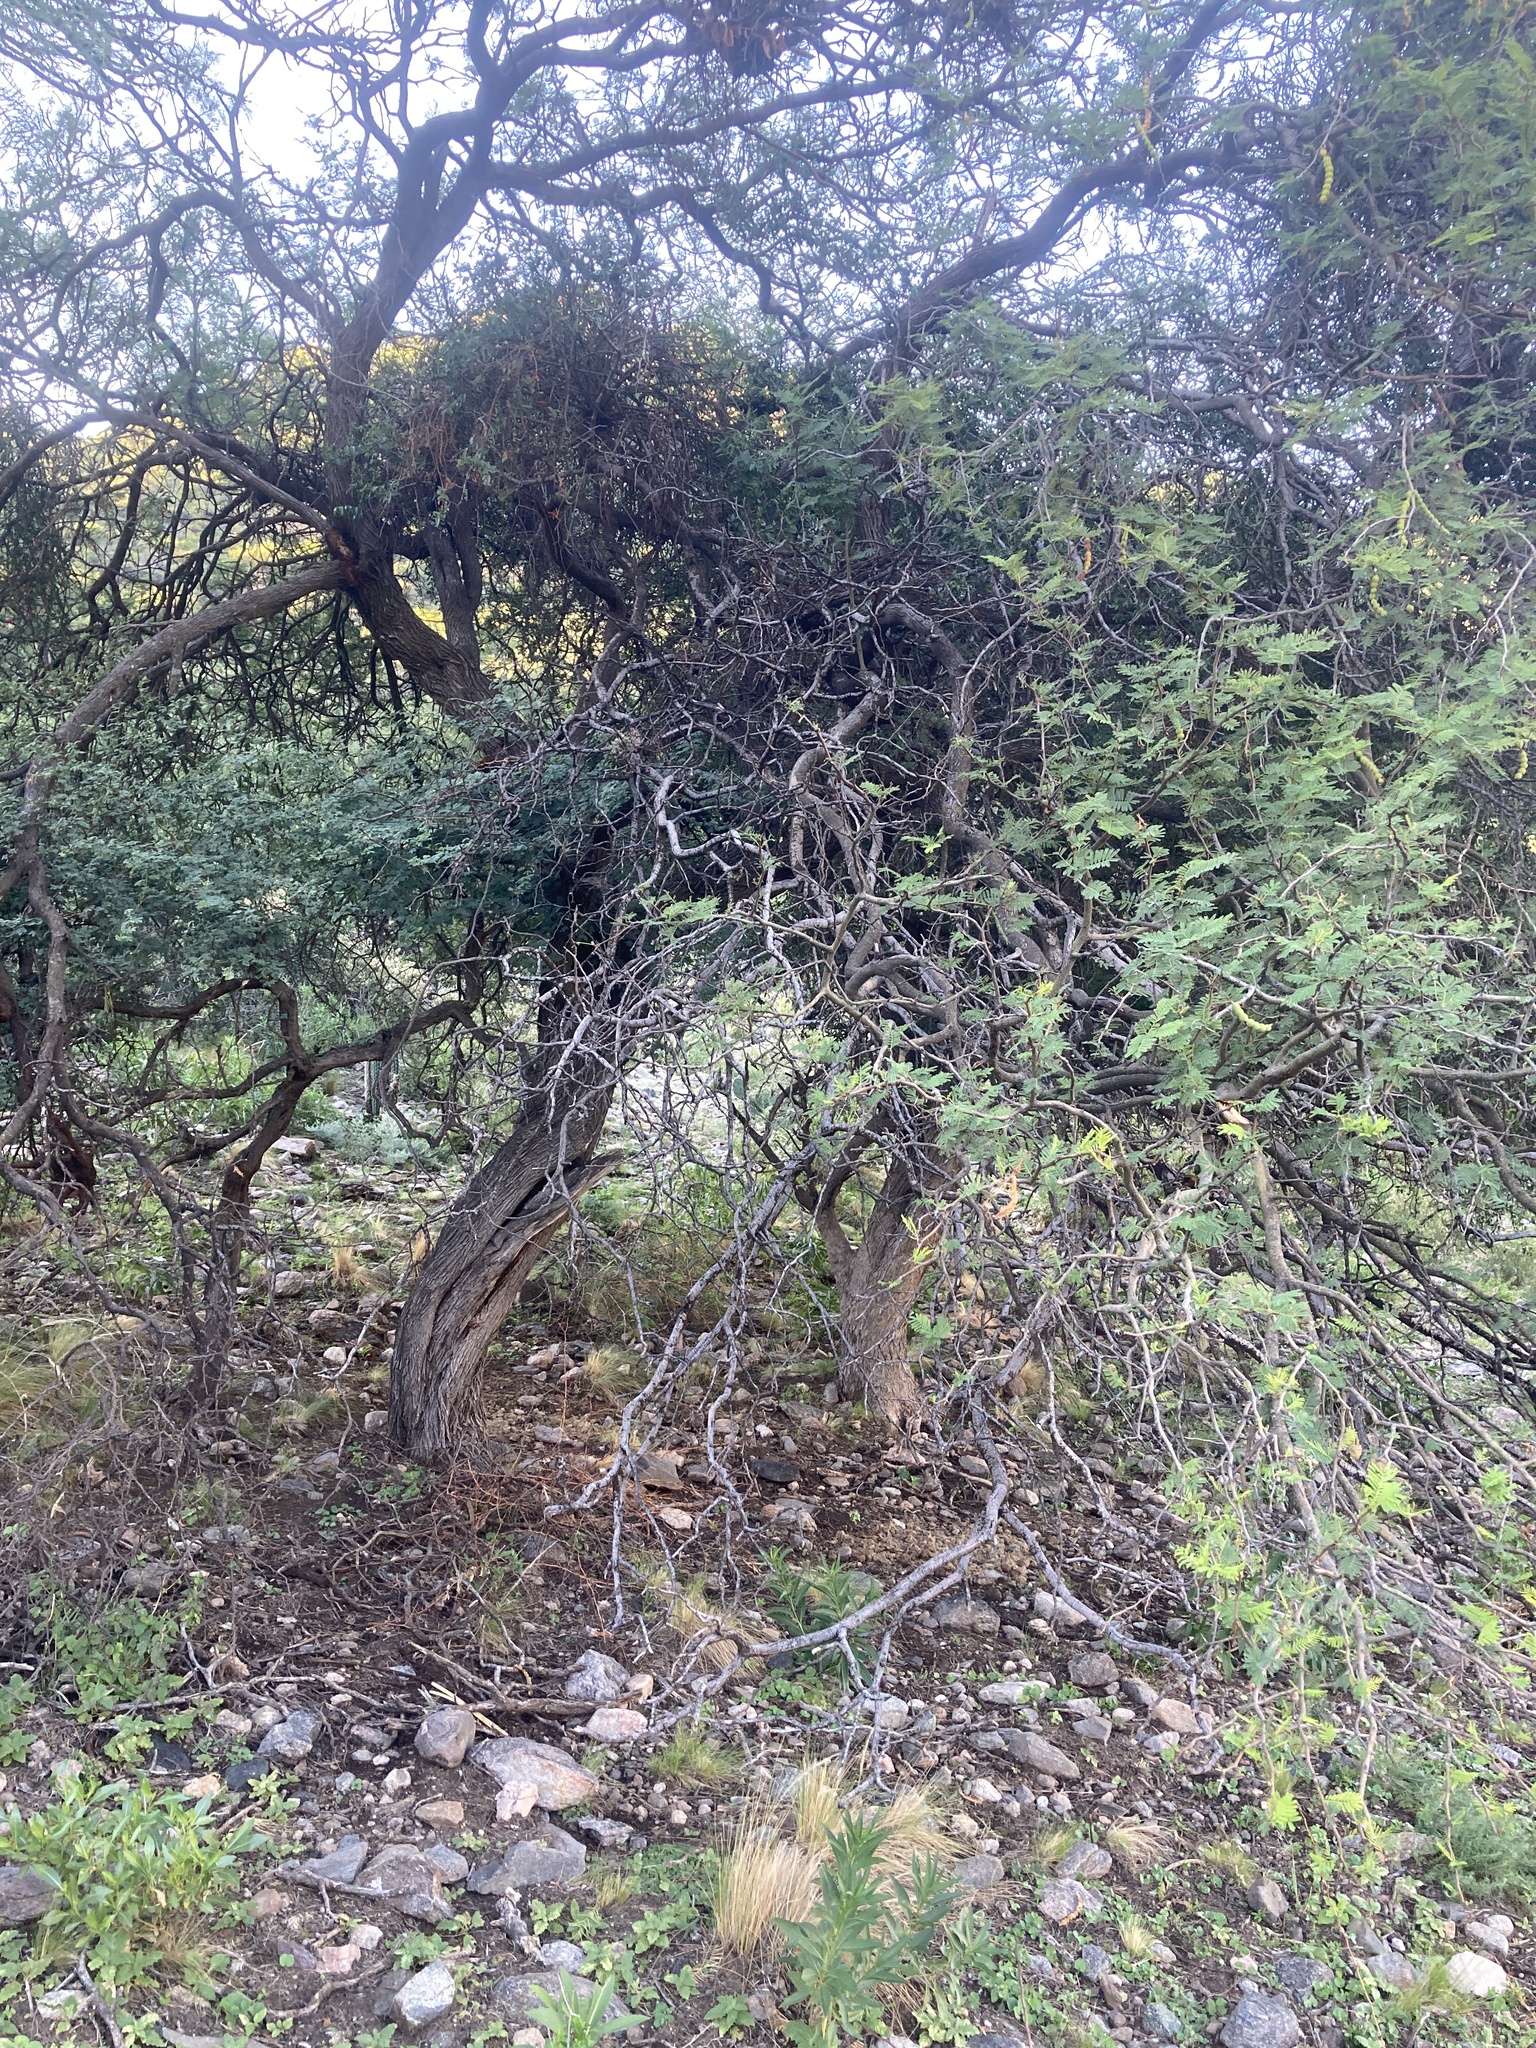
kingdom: Plantae
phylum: Tracheophyta
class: Magnoliopsida
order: Fabales
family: Fabaceae
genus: Vachellia
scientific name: Vachellia aroma
